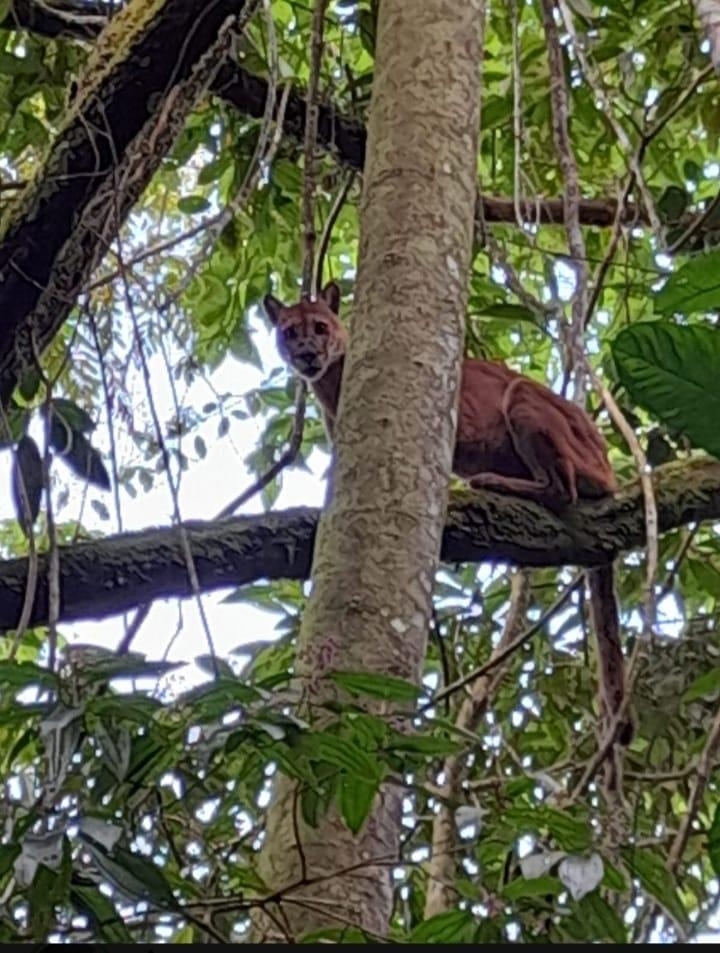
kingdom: Animalia
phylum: Chordata
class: Mammalia
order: Carnivora
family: Felidae
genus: Puma
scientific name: Puma concolor
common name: Puma
